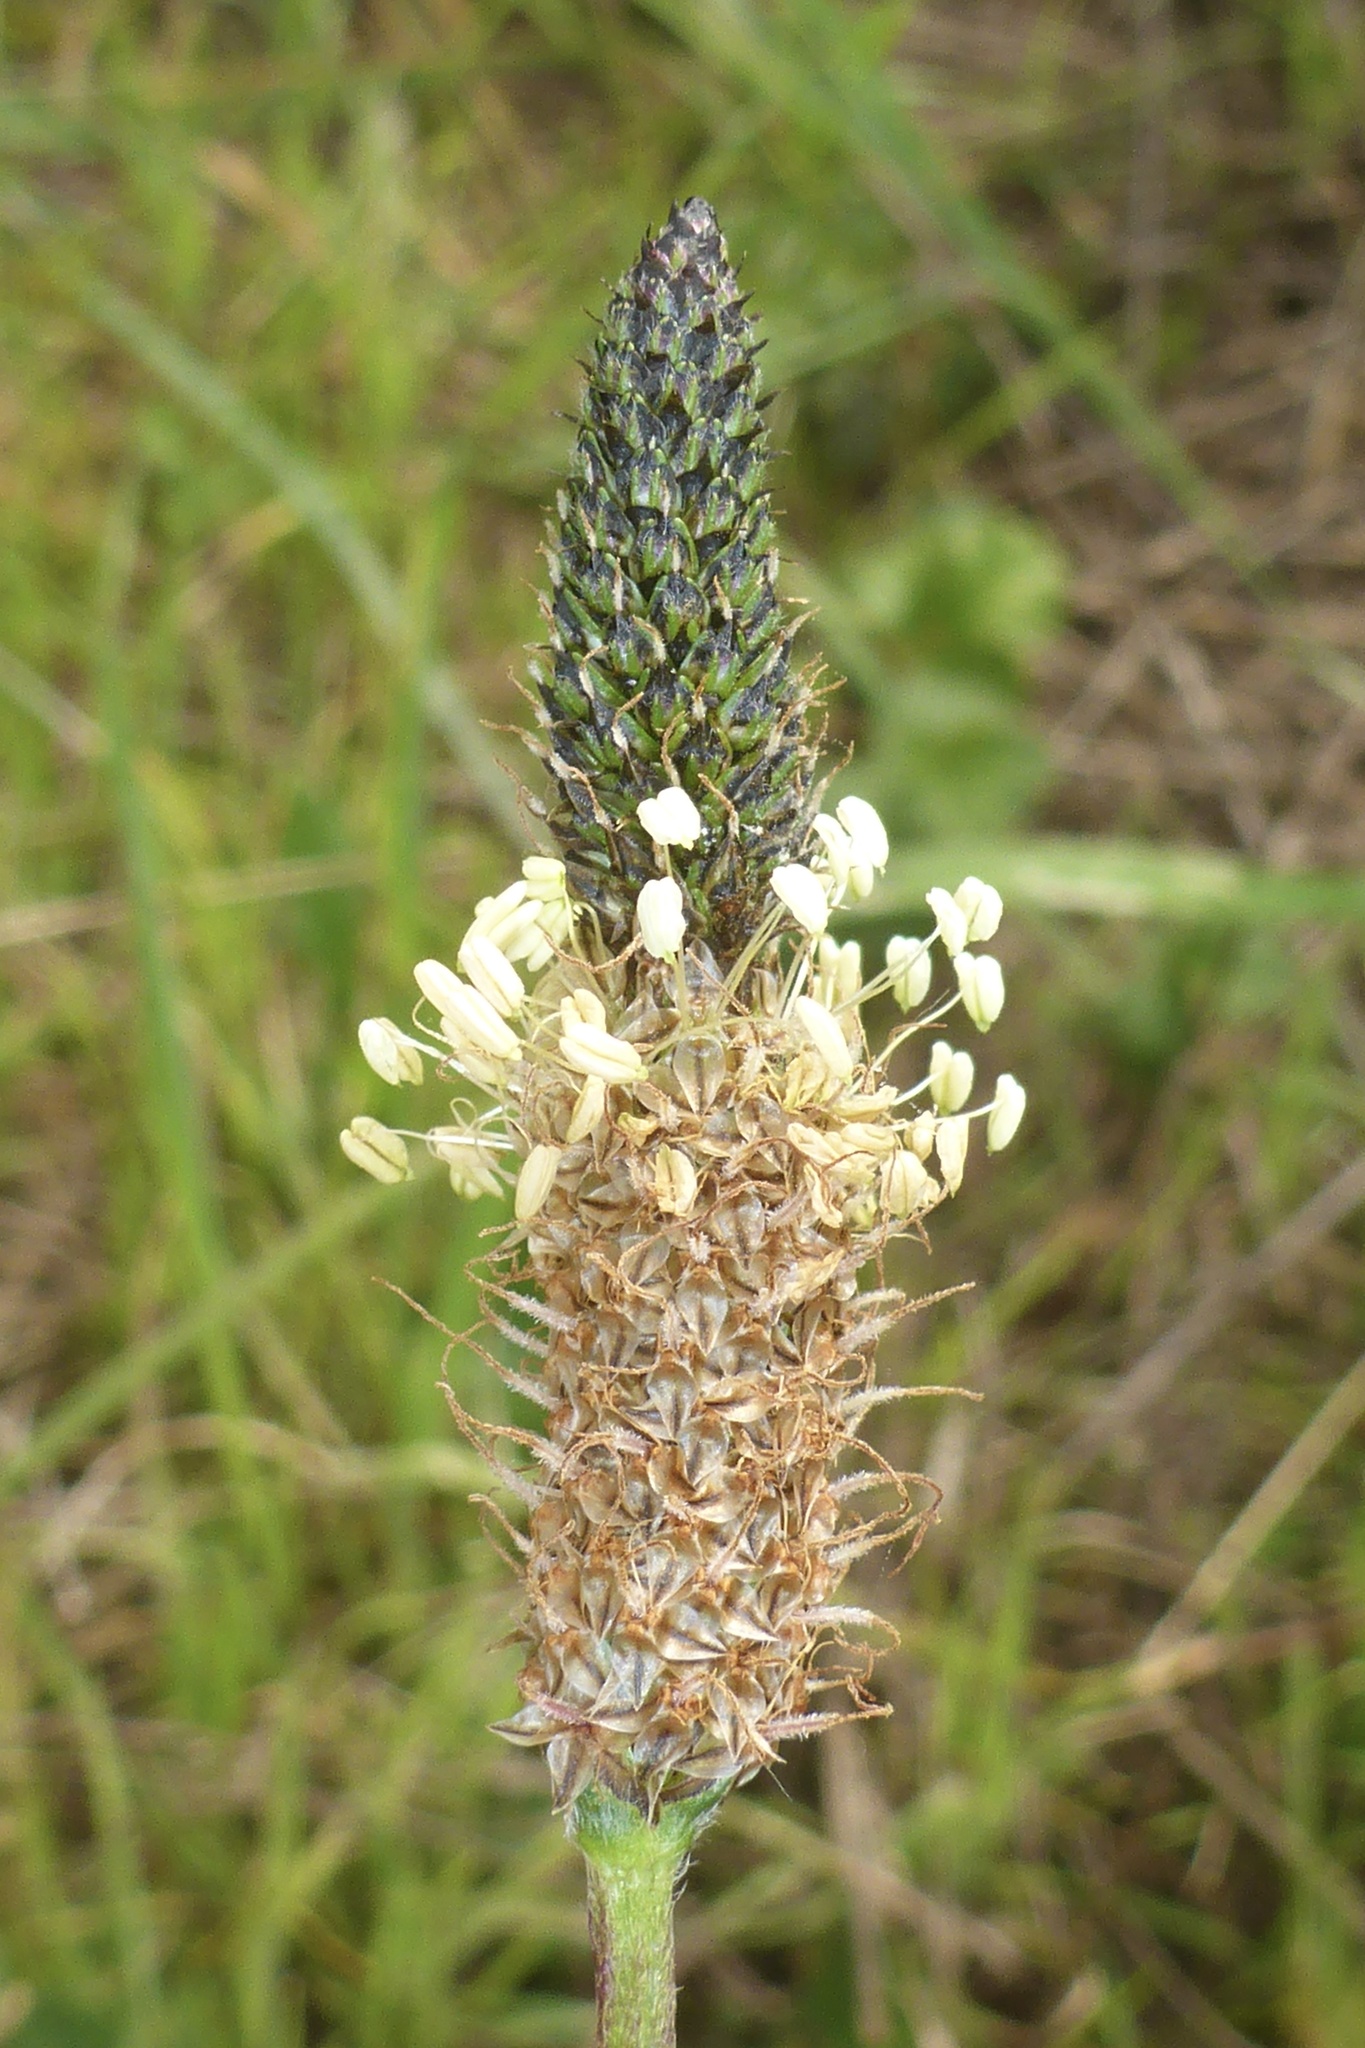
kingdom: Plantae
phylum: Tracheophyta
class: Magnoliopsida
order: Lamiales
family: Plantaginaceae
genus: Plantago
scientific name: Plantago lanceolata
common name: Ribwort plantain
